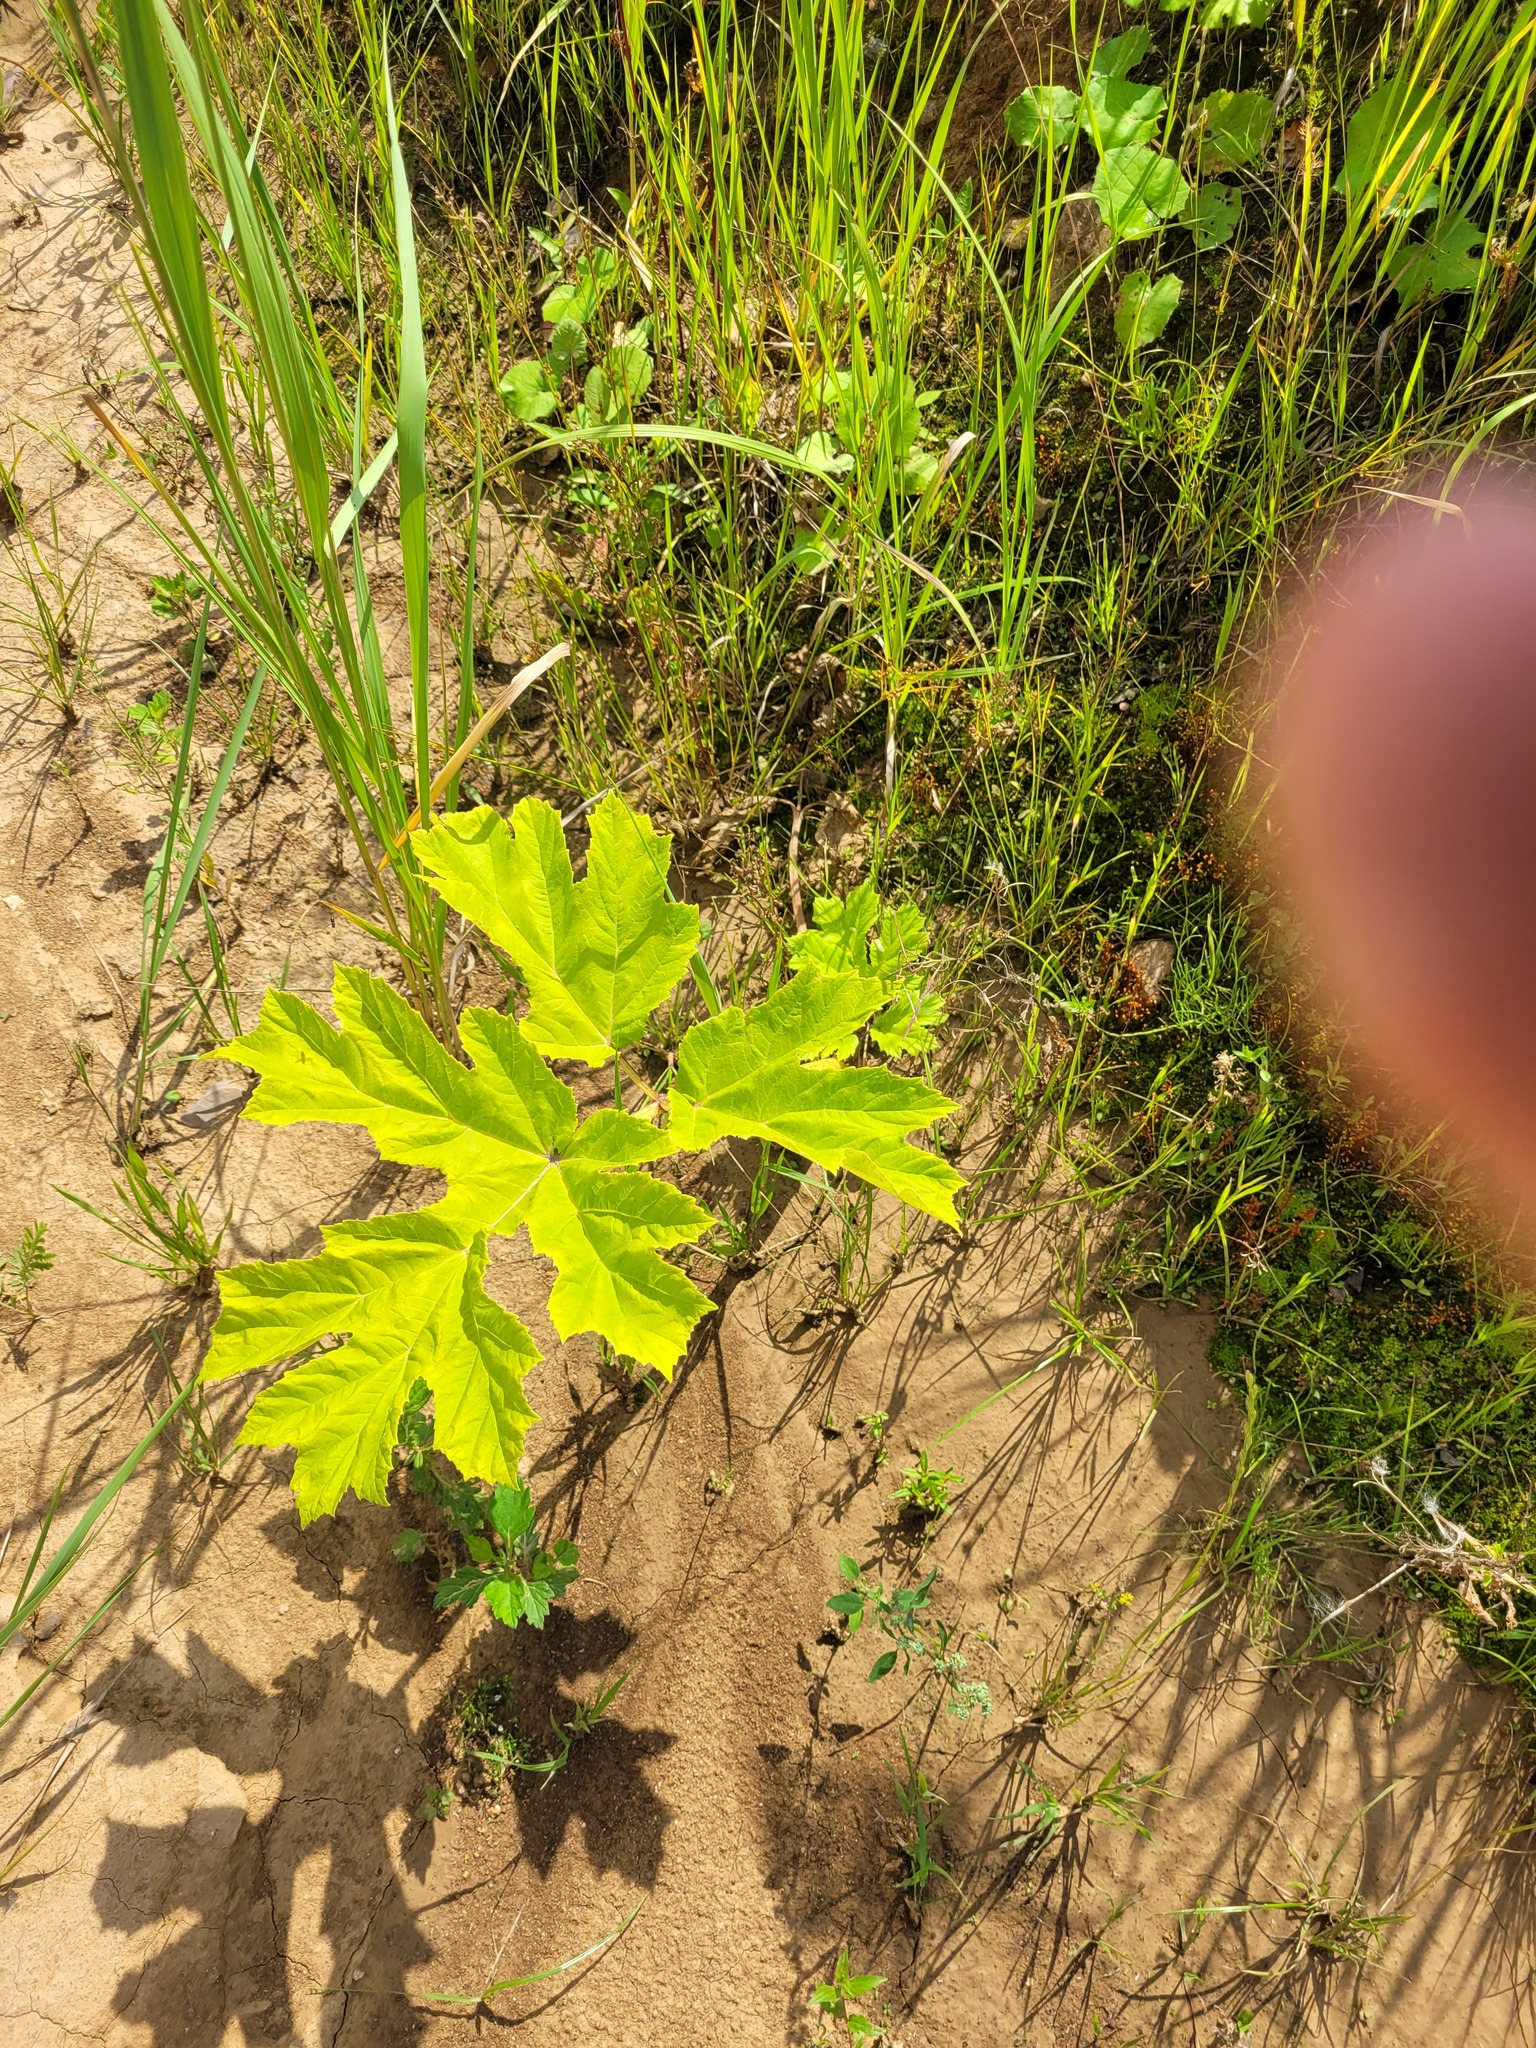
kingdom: Plantae
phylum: Tracheophyta
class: Magnoliopsida
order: Apiales
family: Apiaceae
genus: Heracleum
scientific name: Heracleum sosnowskyi
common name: Sosnowsky's hogweed
